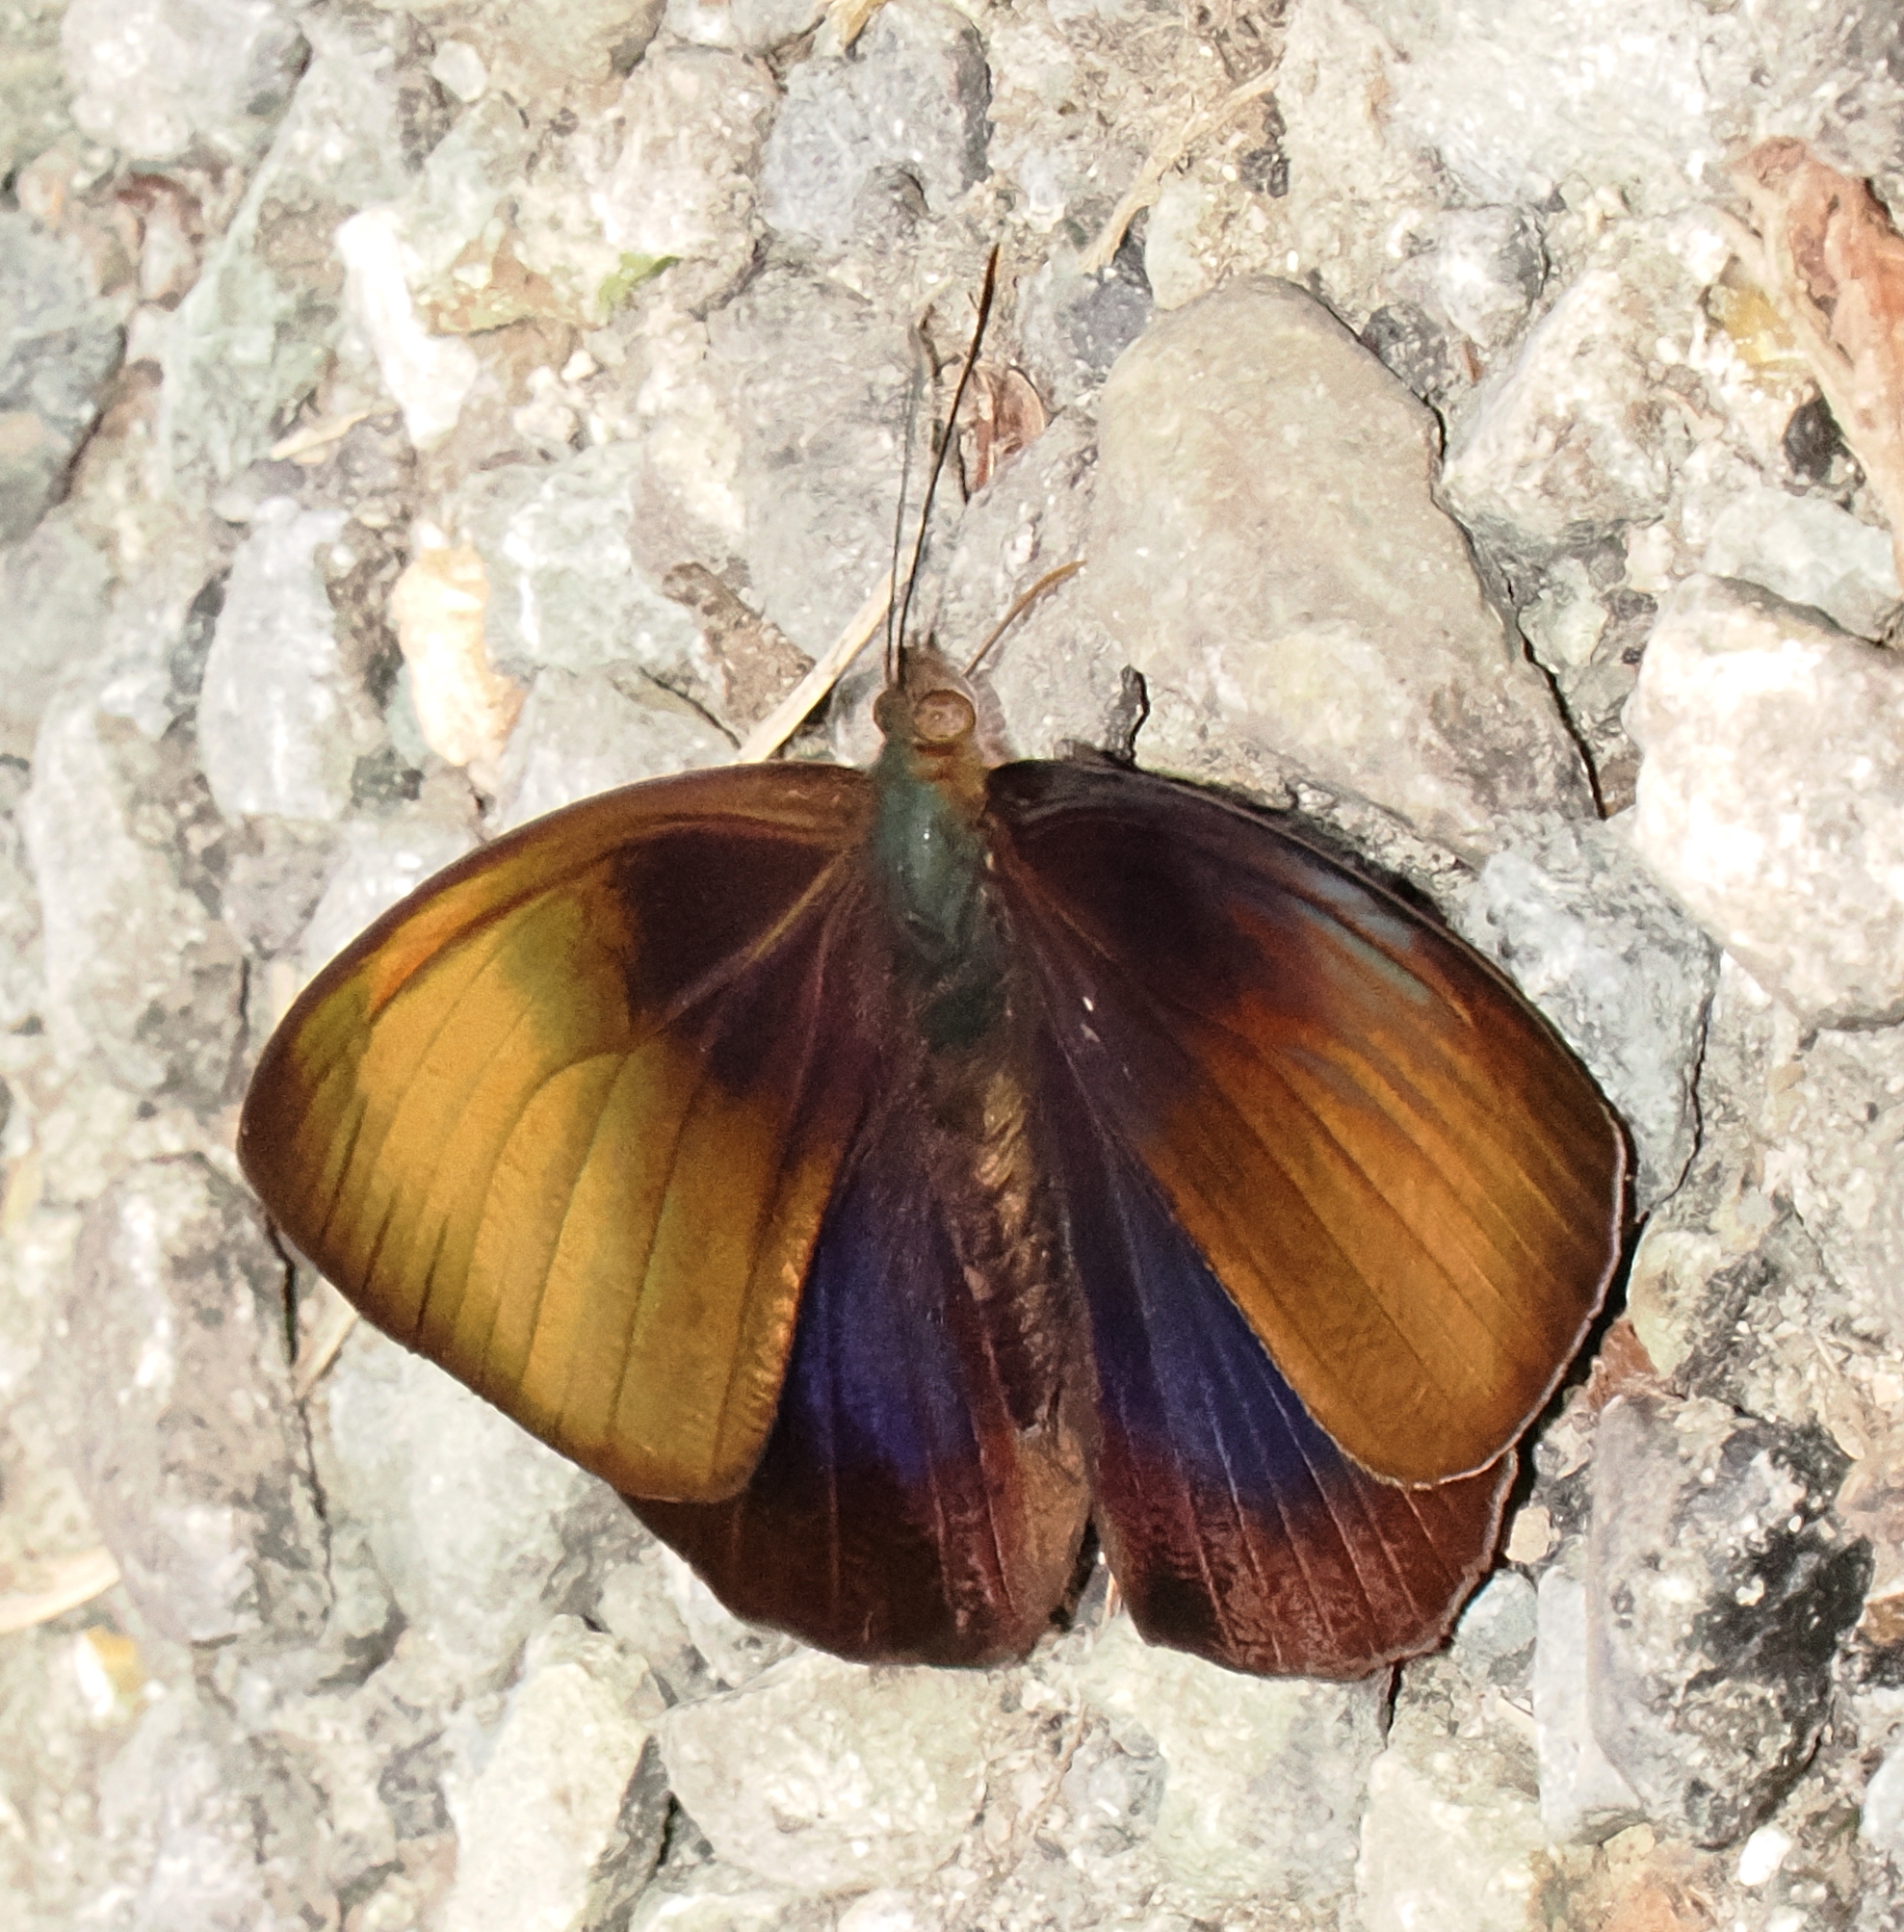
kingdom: Animalia
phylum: Arthropoda
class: Insecta
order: Lepidoptera
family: Nymphalidae
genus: Eunica
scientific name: Eunica cabira
